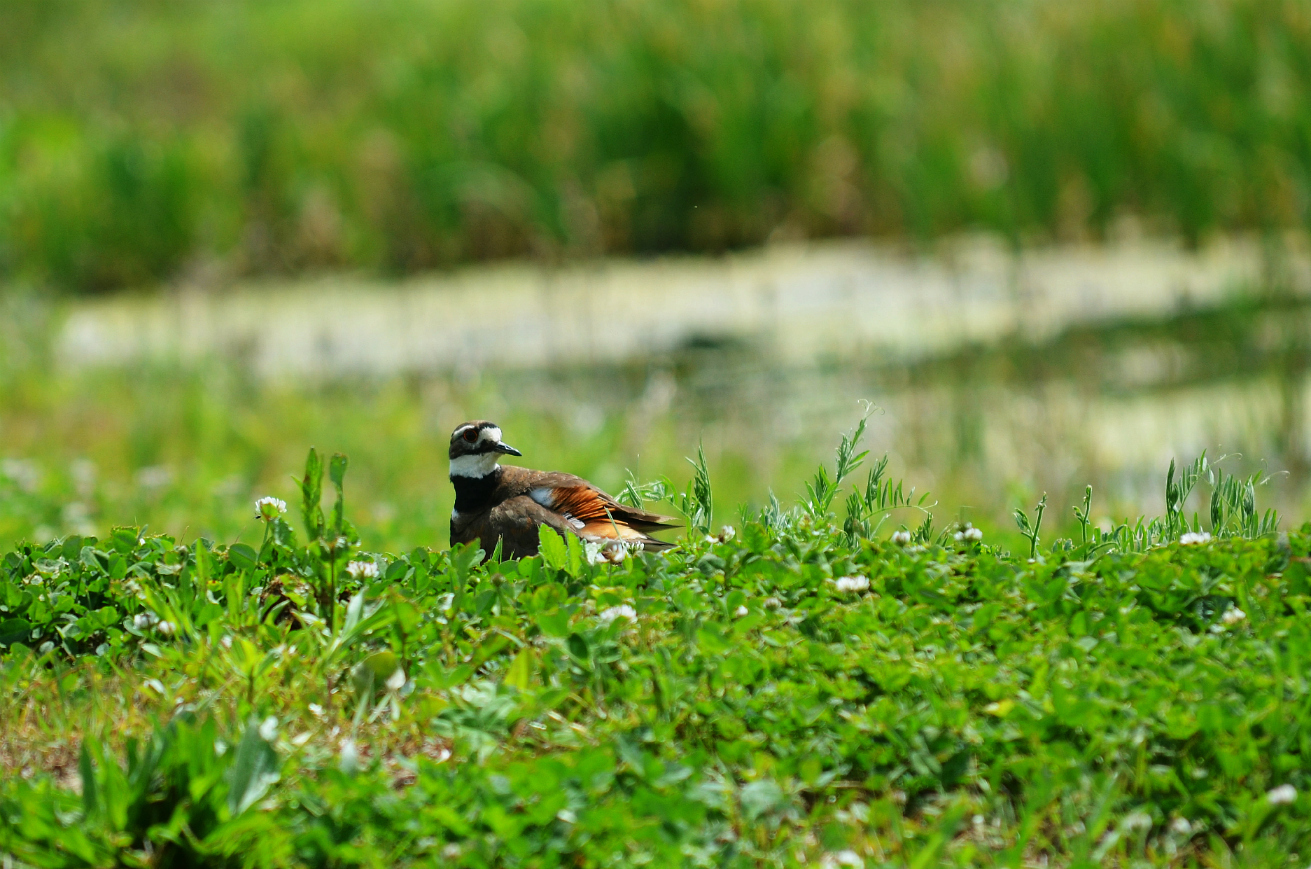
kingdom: Animalia
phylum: Chordata
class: Aves
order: Charadriiformes
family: Charadriidae
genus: Charadrius
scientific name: Charadrius vociferus
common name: Killdeer
